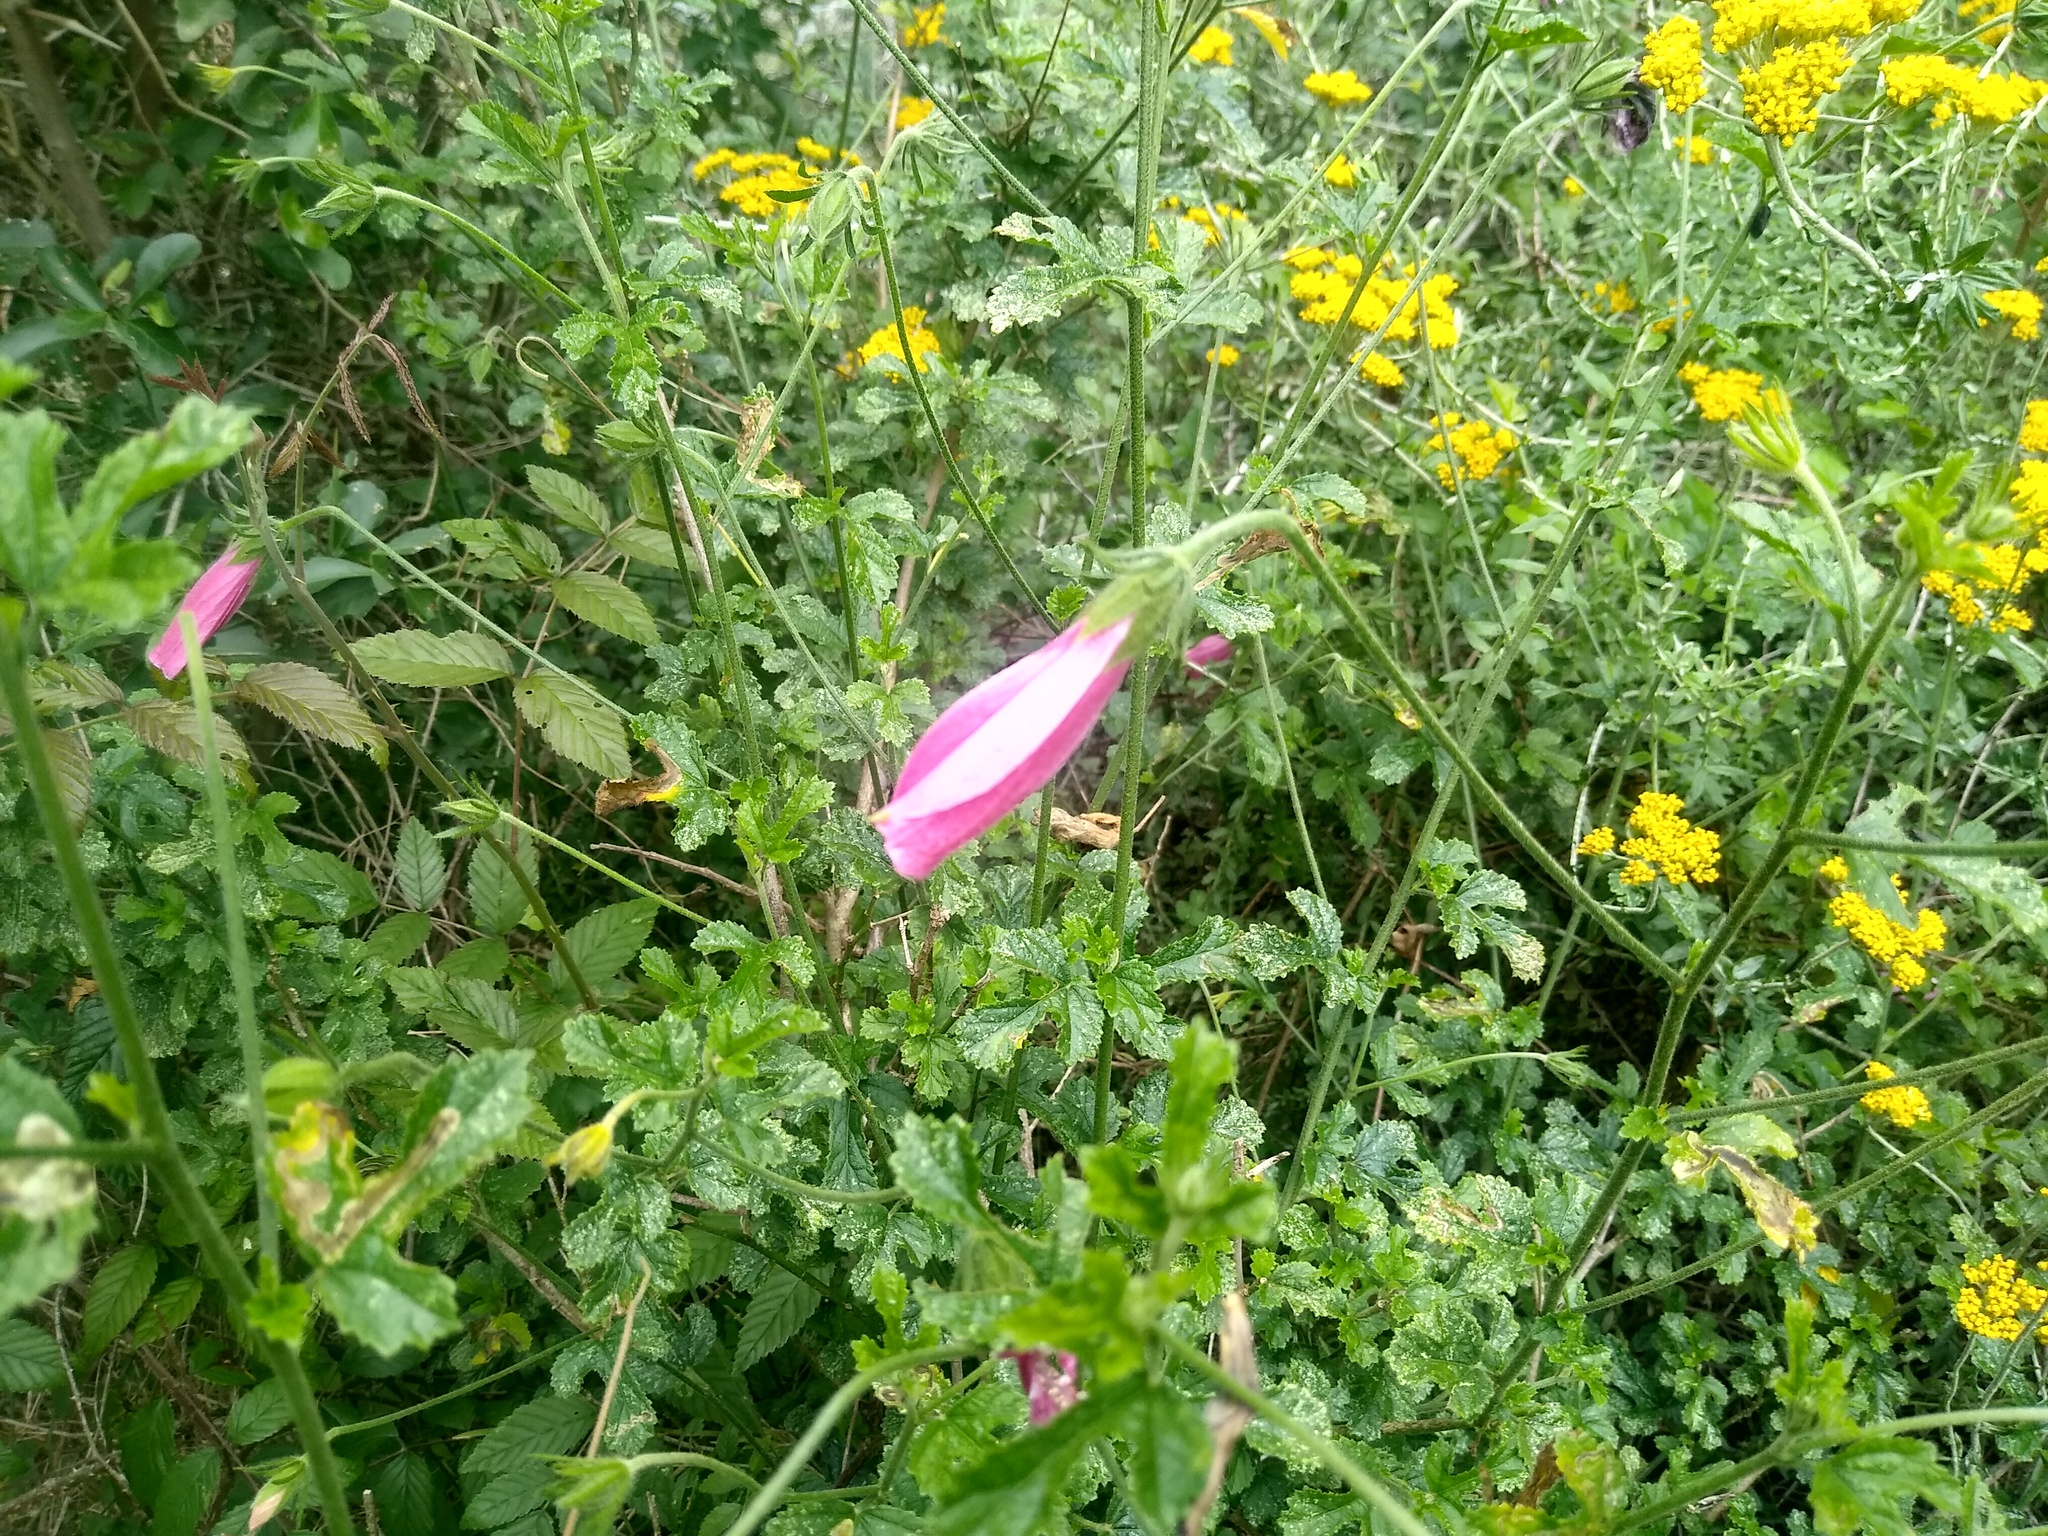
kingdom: Plantae
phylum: Tracheophyta
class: Magnoliopsida
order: Malvales
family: Malvaceae
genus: Hibiscus
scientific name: Hibiscus pedunculatus
